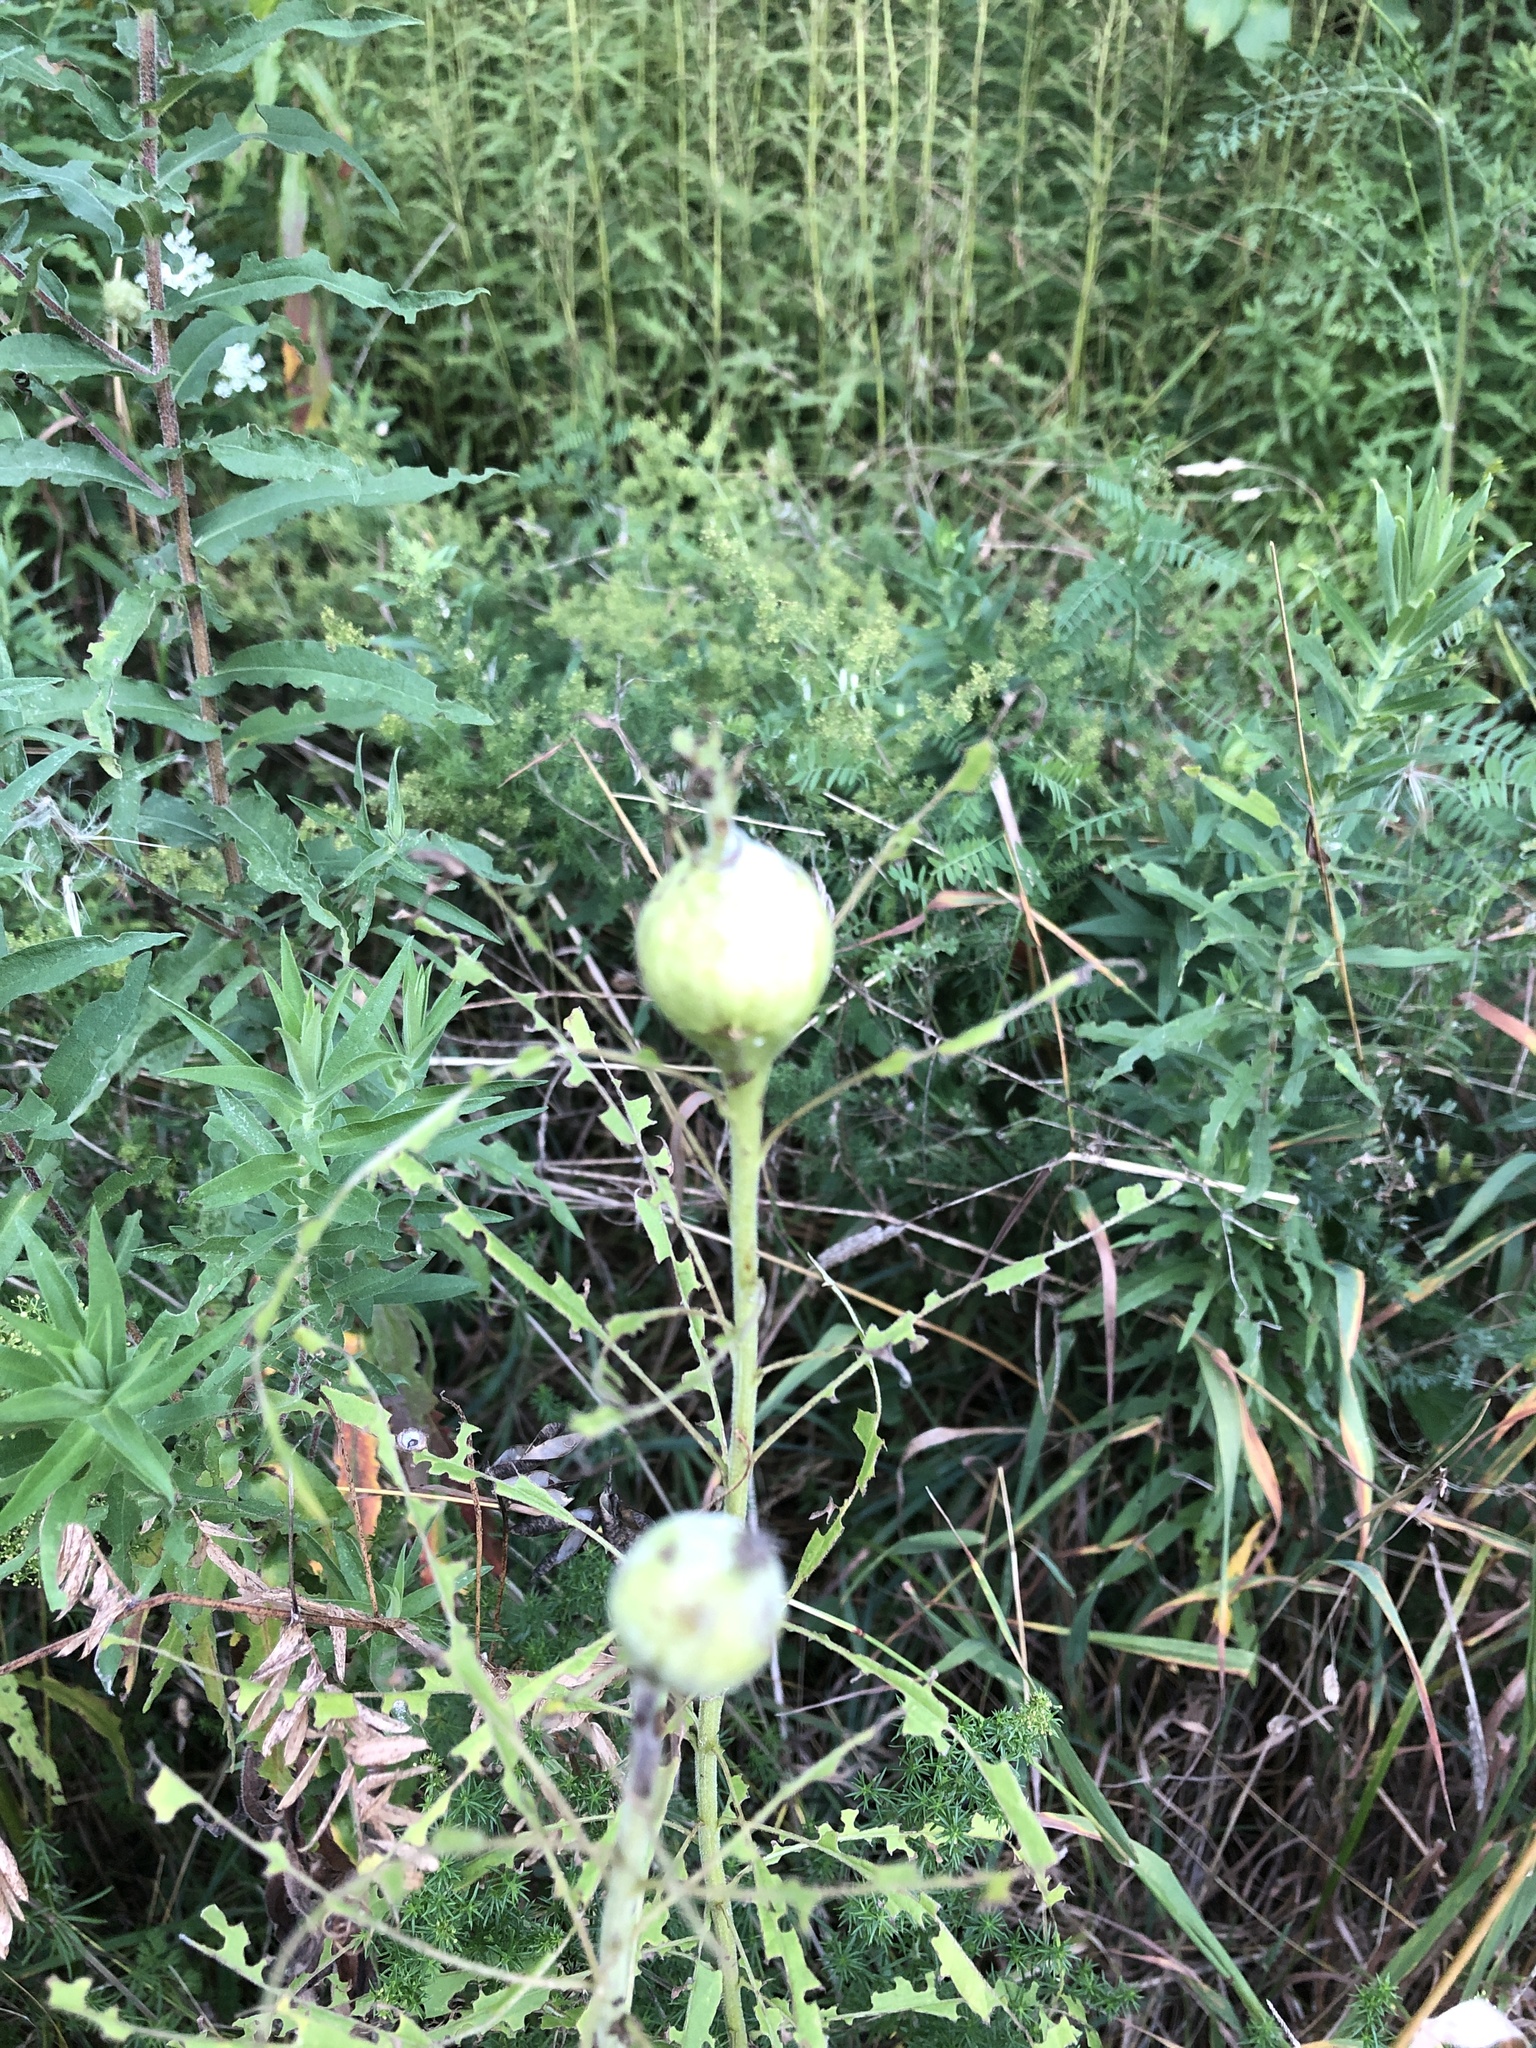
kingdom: Animalia
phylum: Arthropoda
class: Insecta
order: Diptera
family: Tephritidae
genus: Eurosta
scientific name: Eurosta solidaginis
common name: Goldenrod gall fly
